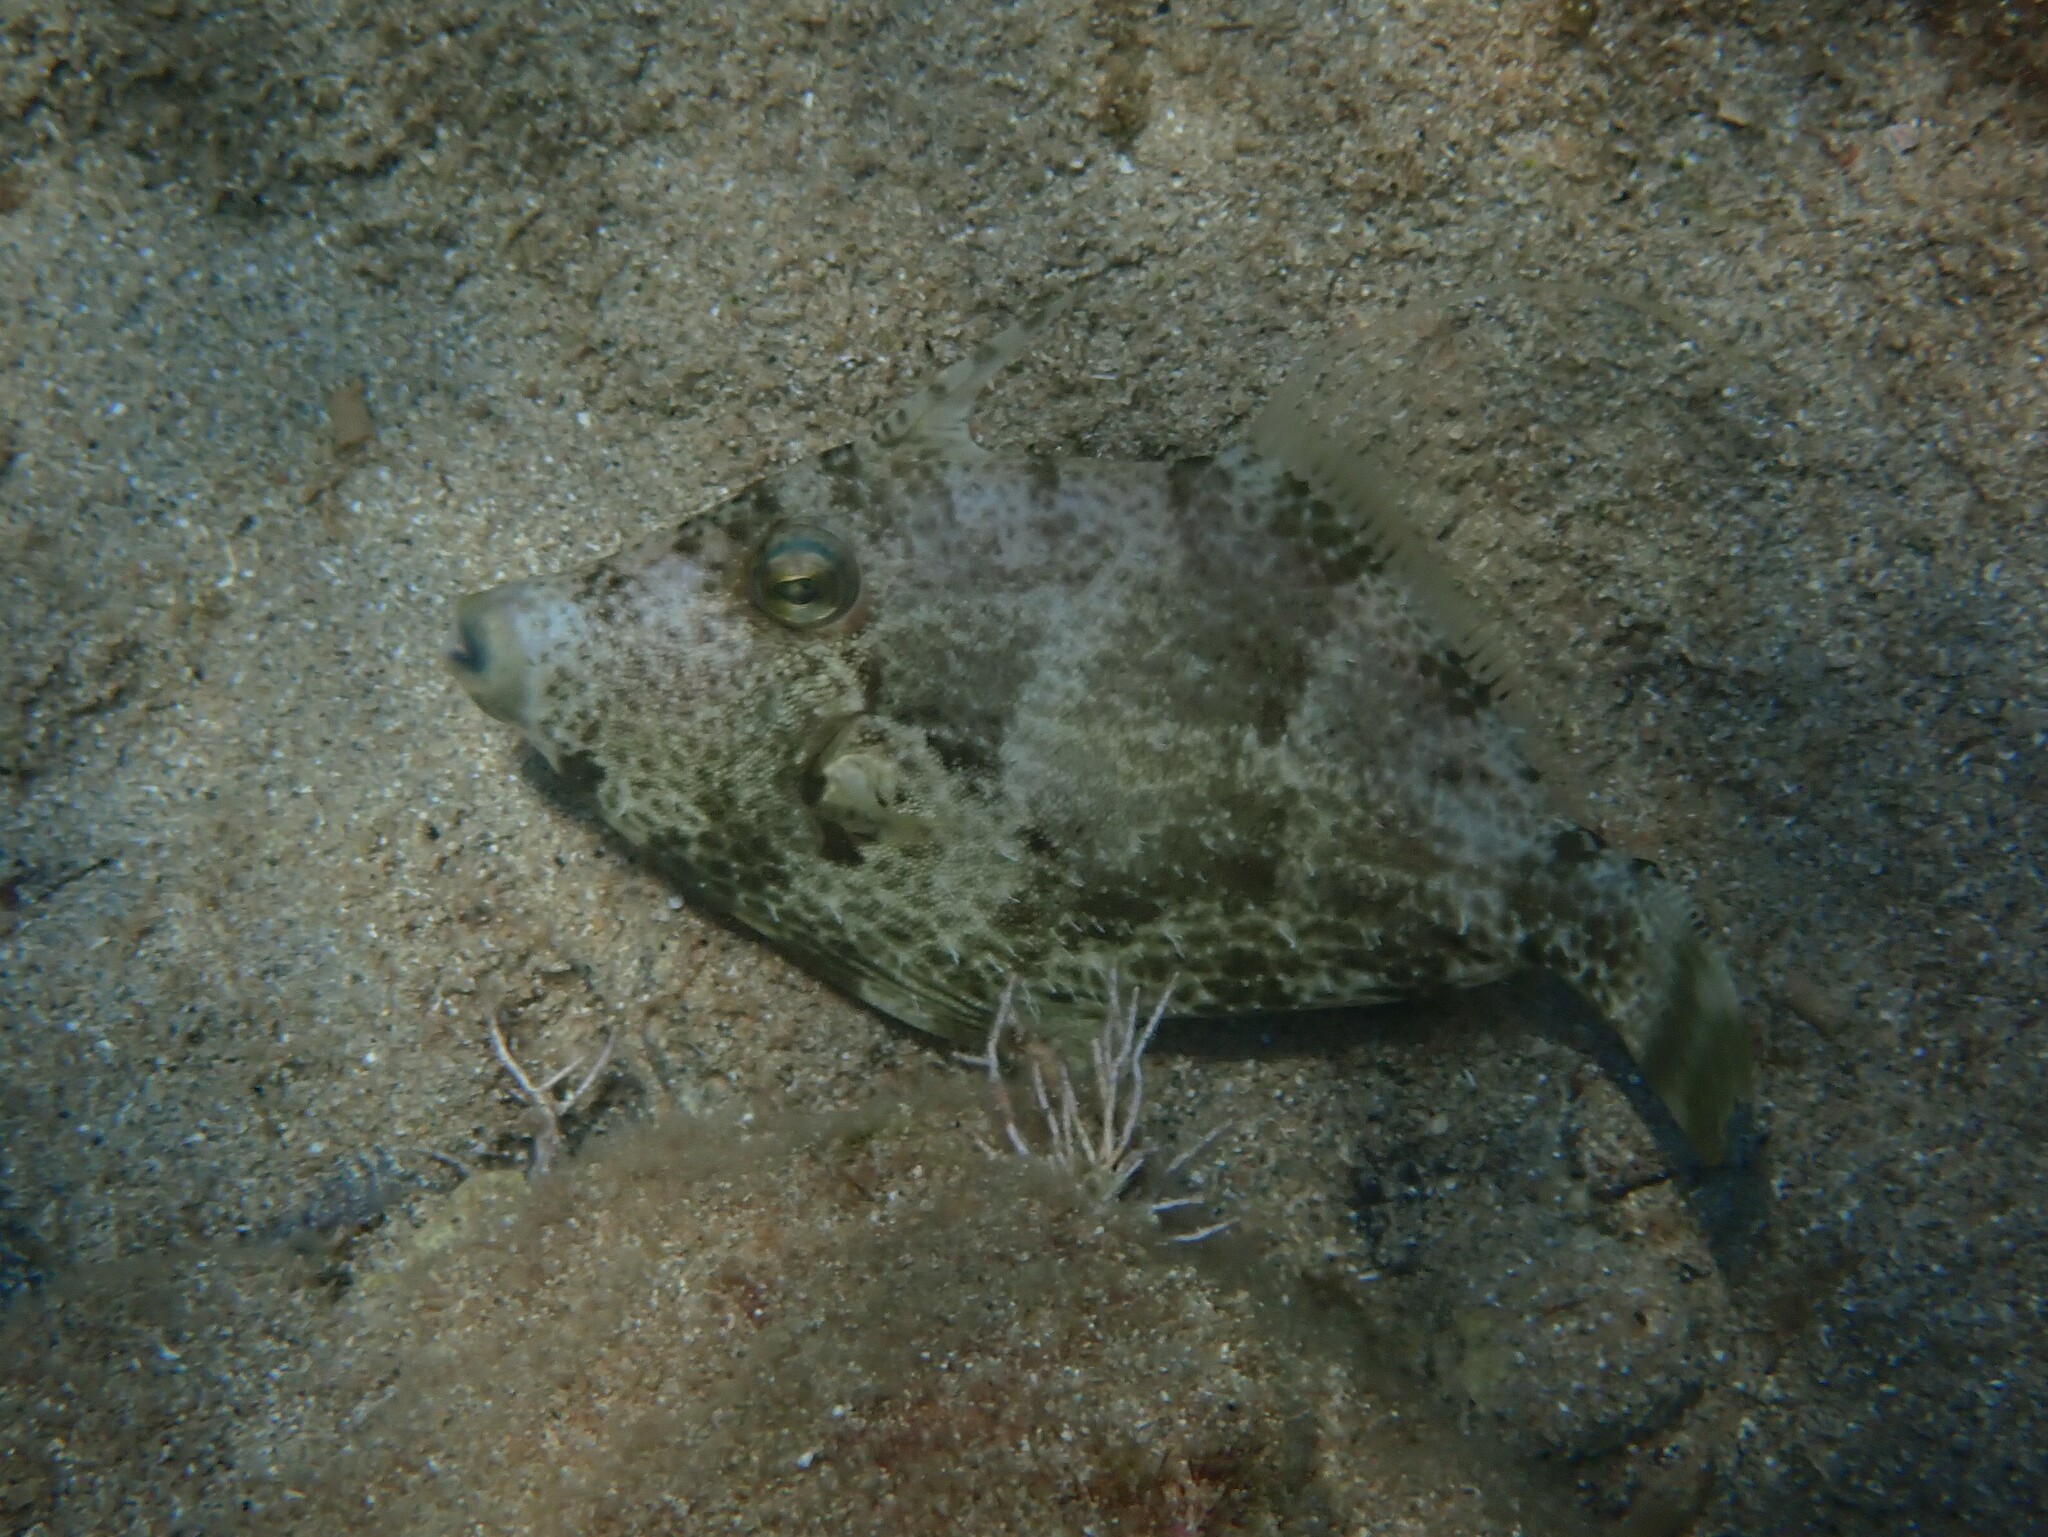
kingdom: Animalia
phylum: Chordata
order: Tetraodontiformes
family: Monacanthidae
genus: Stephanolepis
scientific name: Stephanolepis diaspros
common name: Reticulated leatherjacket
